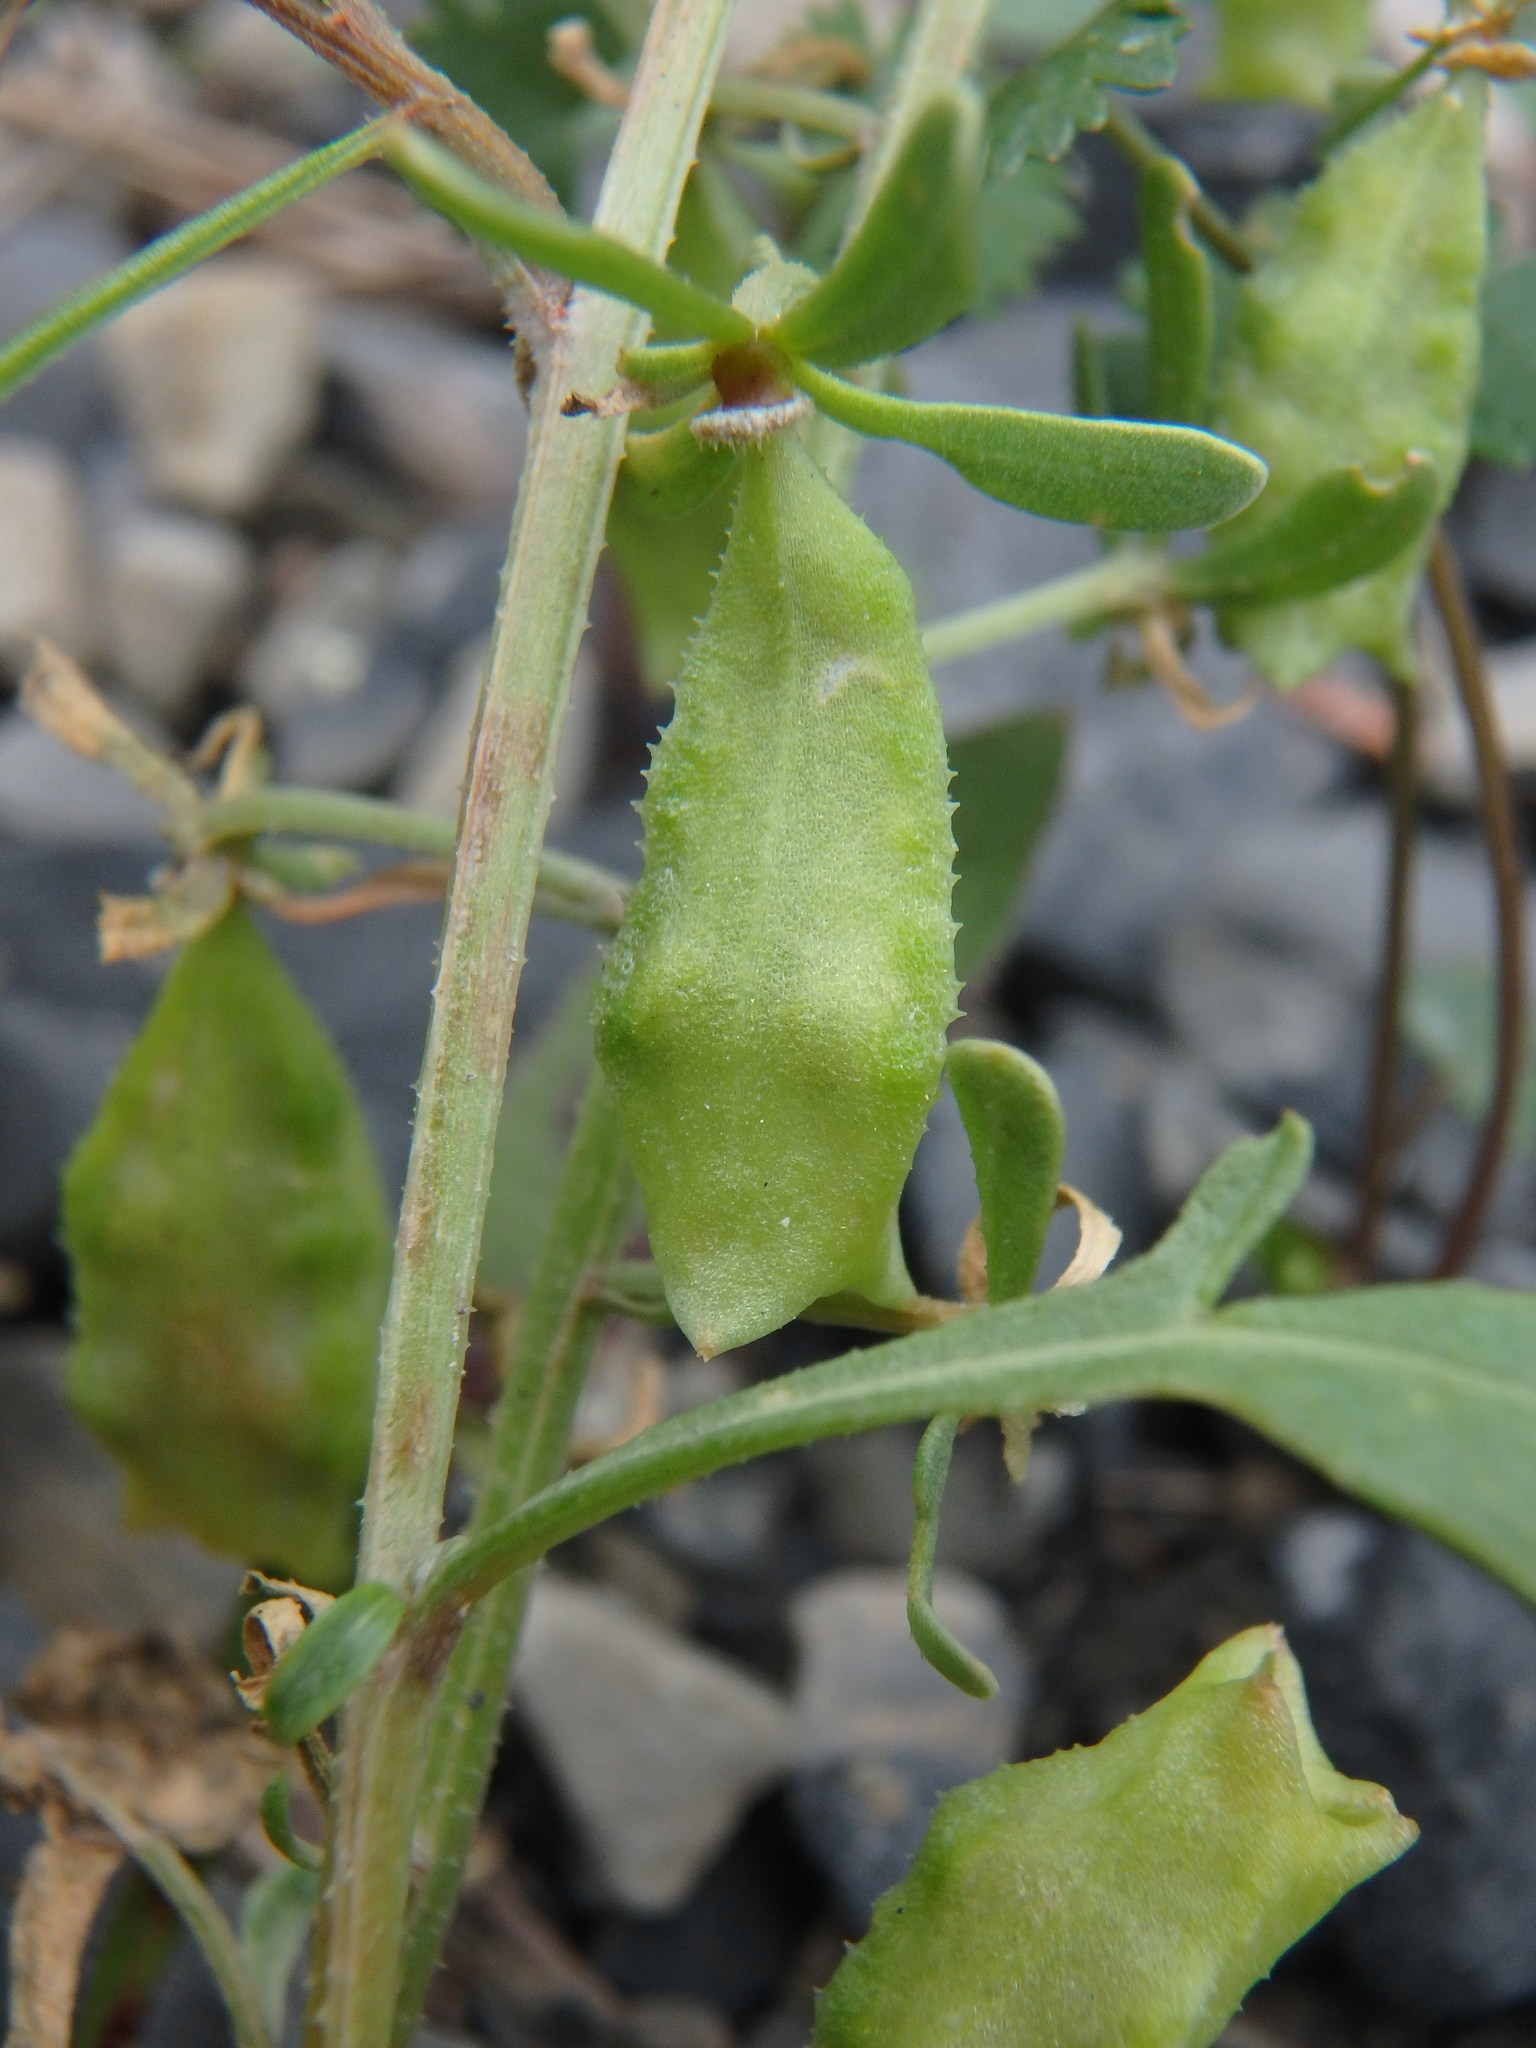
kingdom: Plantae
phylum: Tracheophyta
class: Magnoliopsida
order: Brassicales
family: Resedaceae
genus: Reseda
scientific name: Reseda phyteuma
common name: Corn mignonette
